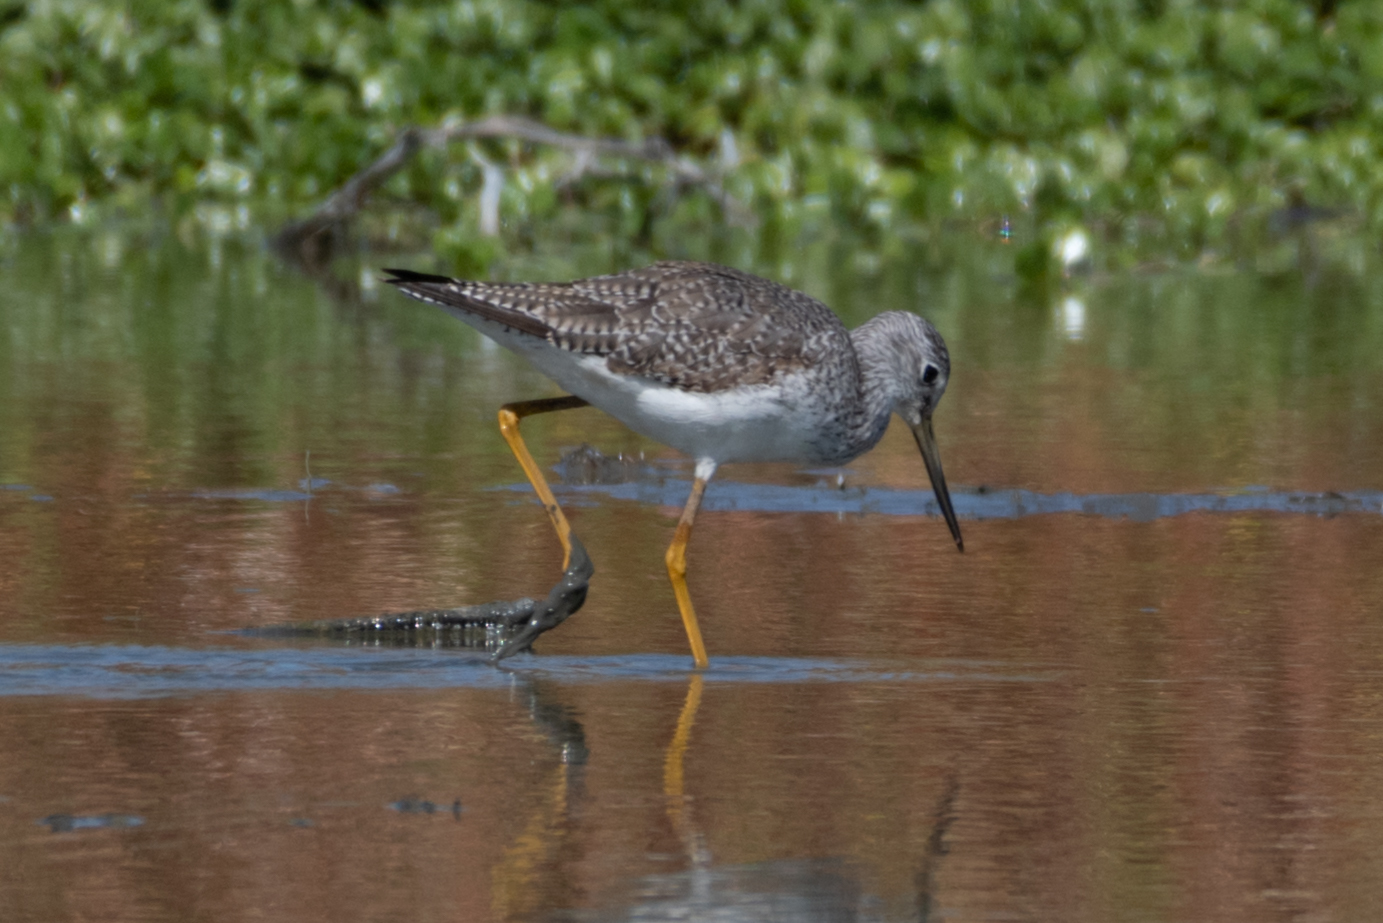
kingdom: Animalia
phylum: Chordata
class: Aves
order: Charadriiformes
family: Scolopacidae
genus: Tringa
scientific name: Tringa melanoleuca
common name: Greater yellowlegs
